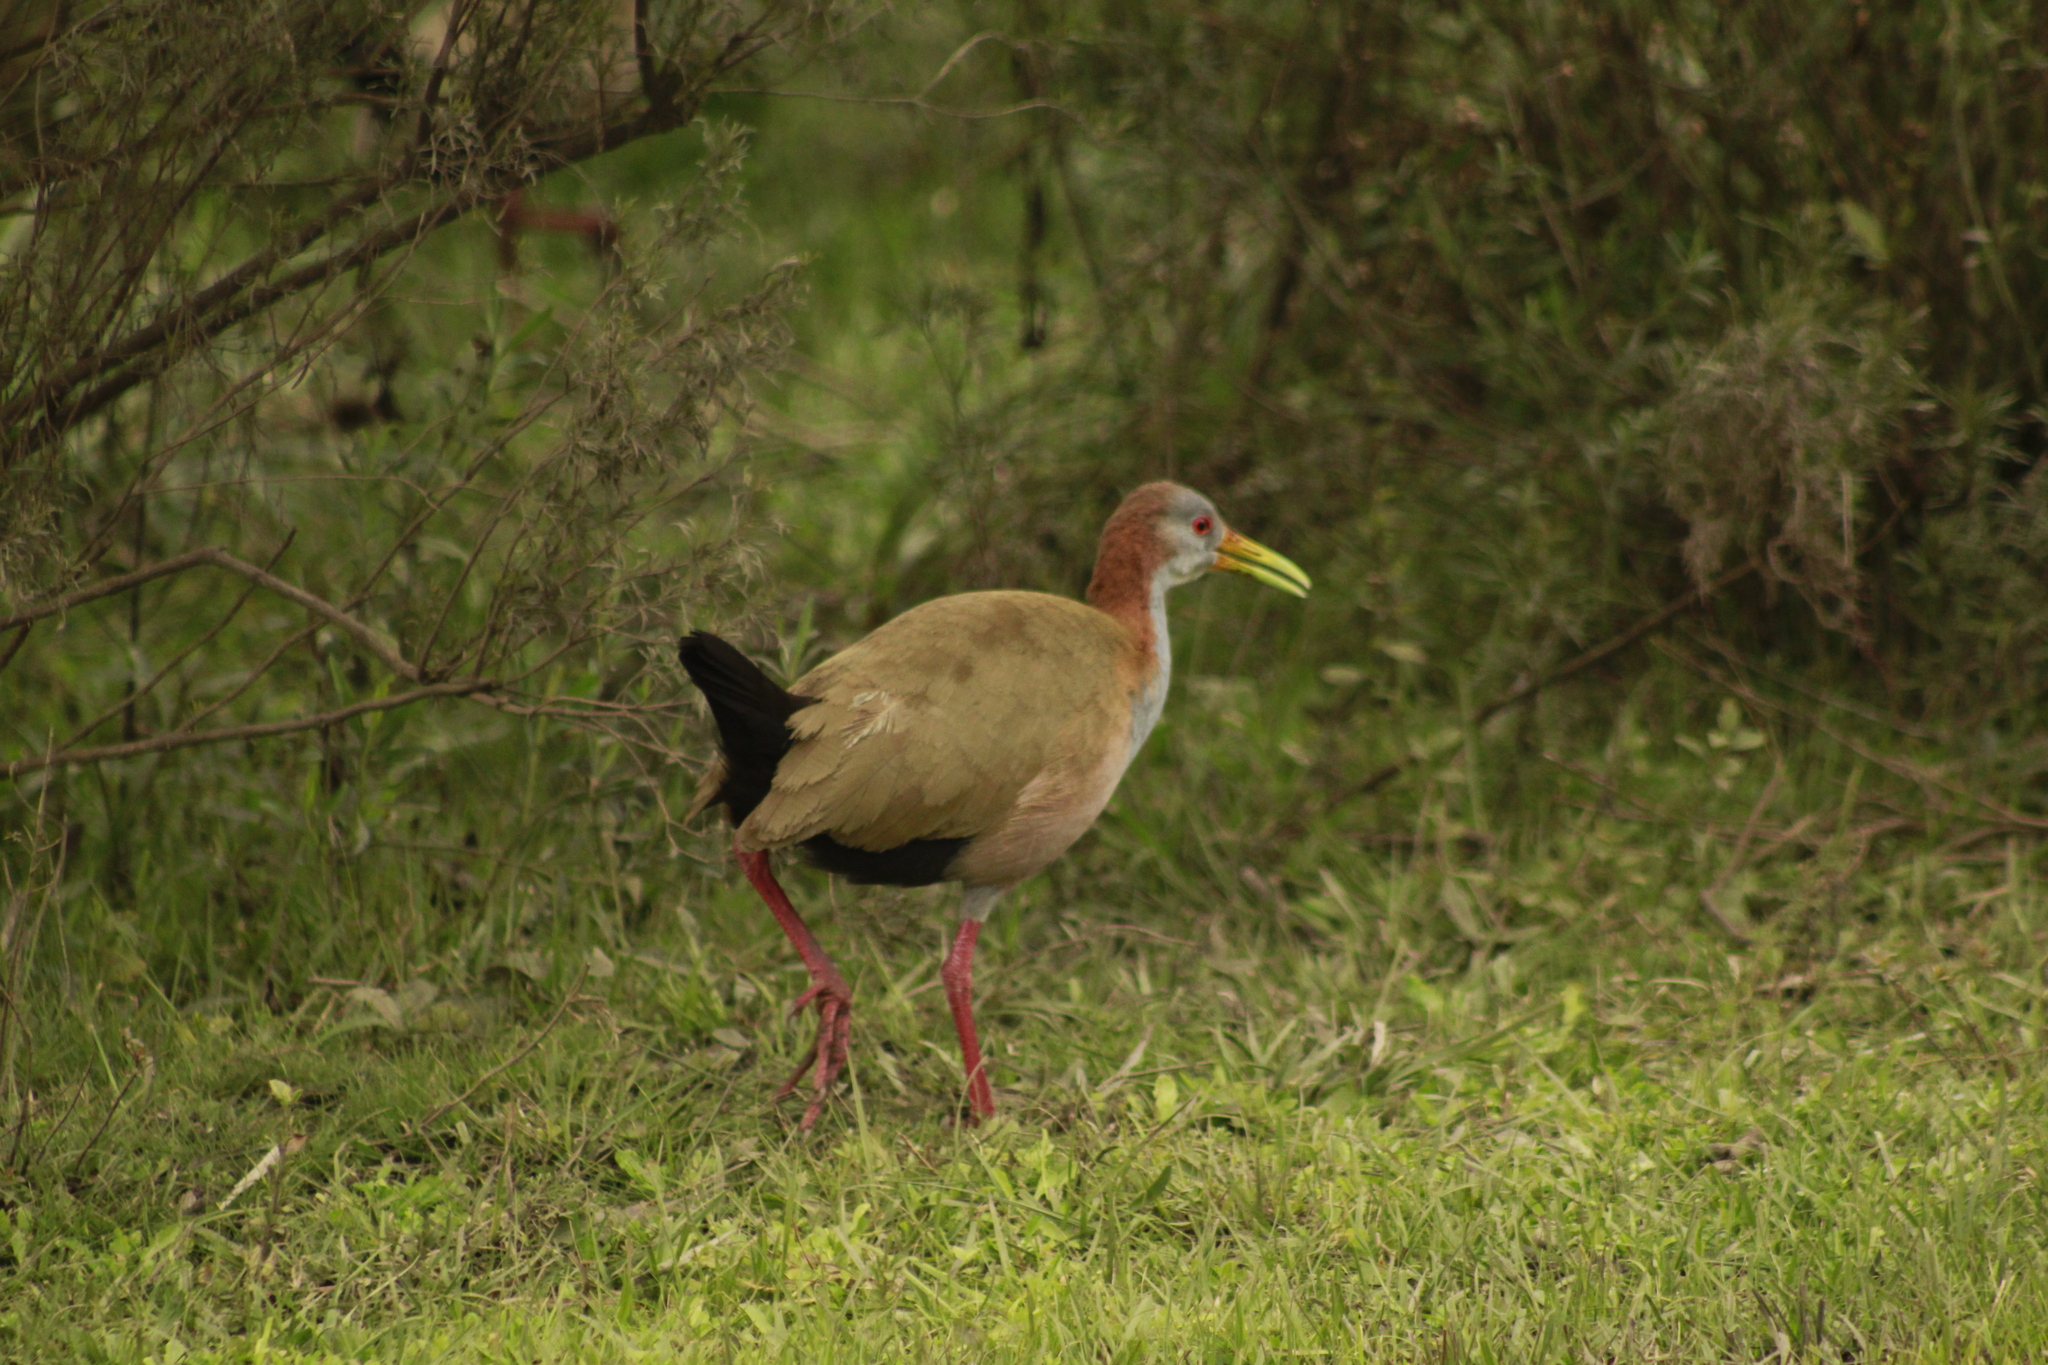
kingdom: Animalia
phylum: Chordata
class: Aves
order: Gruiformes
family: Rallidae
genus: Aramides
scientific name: Aramides ypecaha
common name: Giant wood rail
